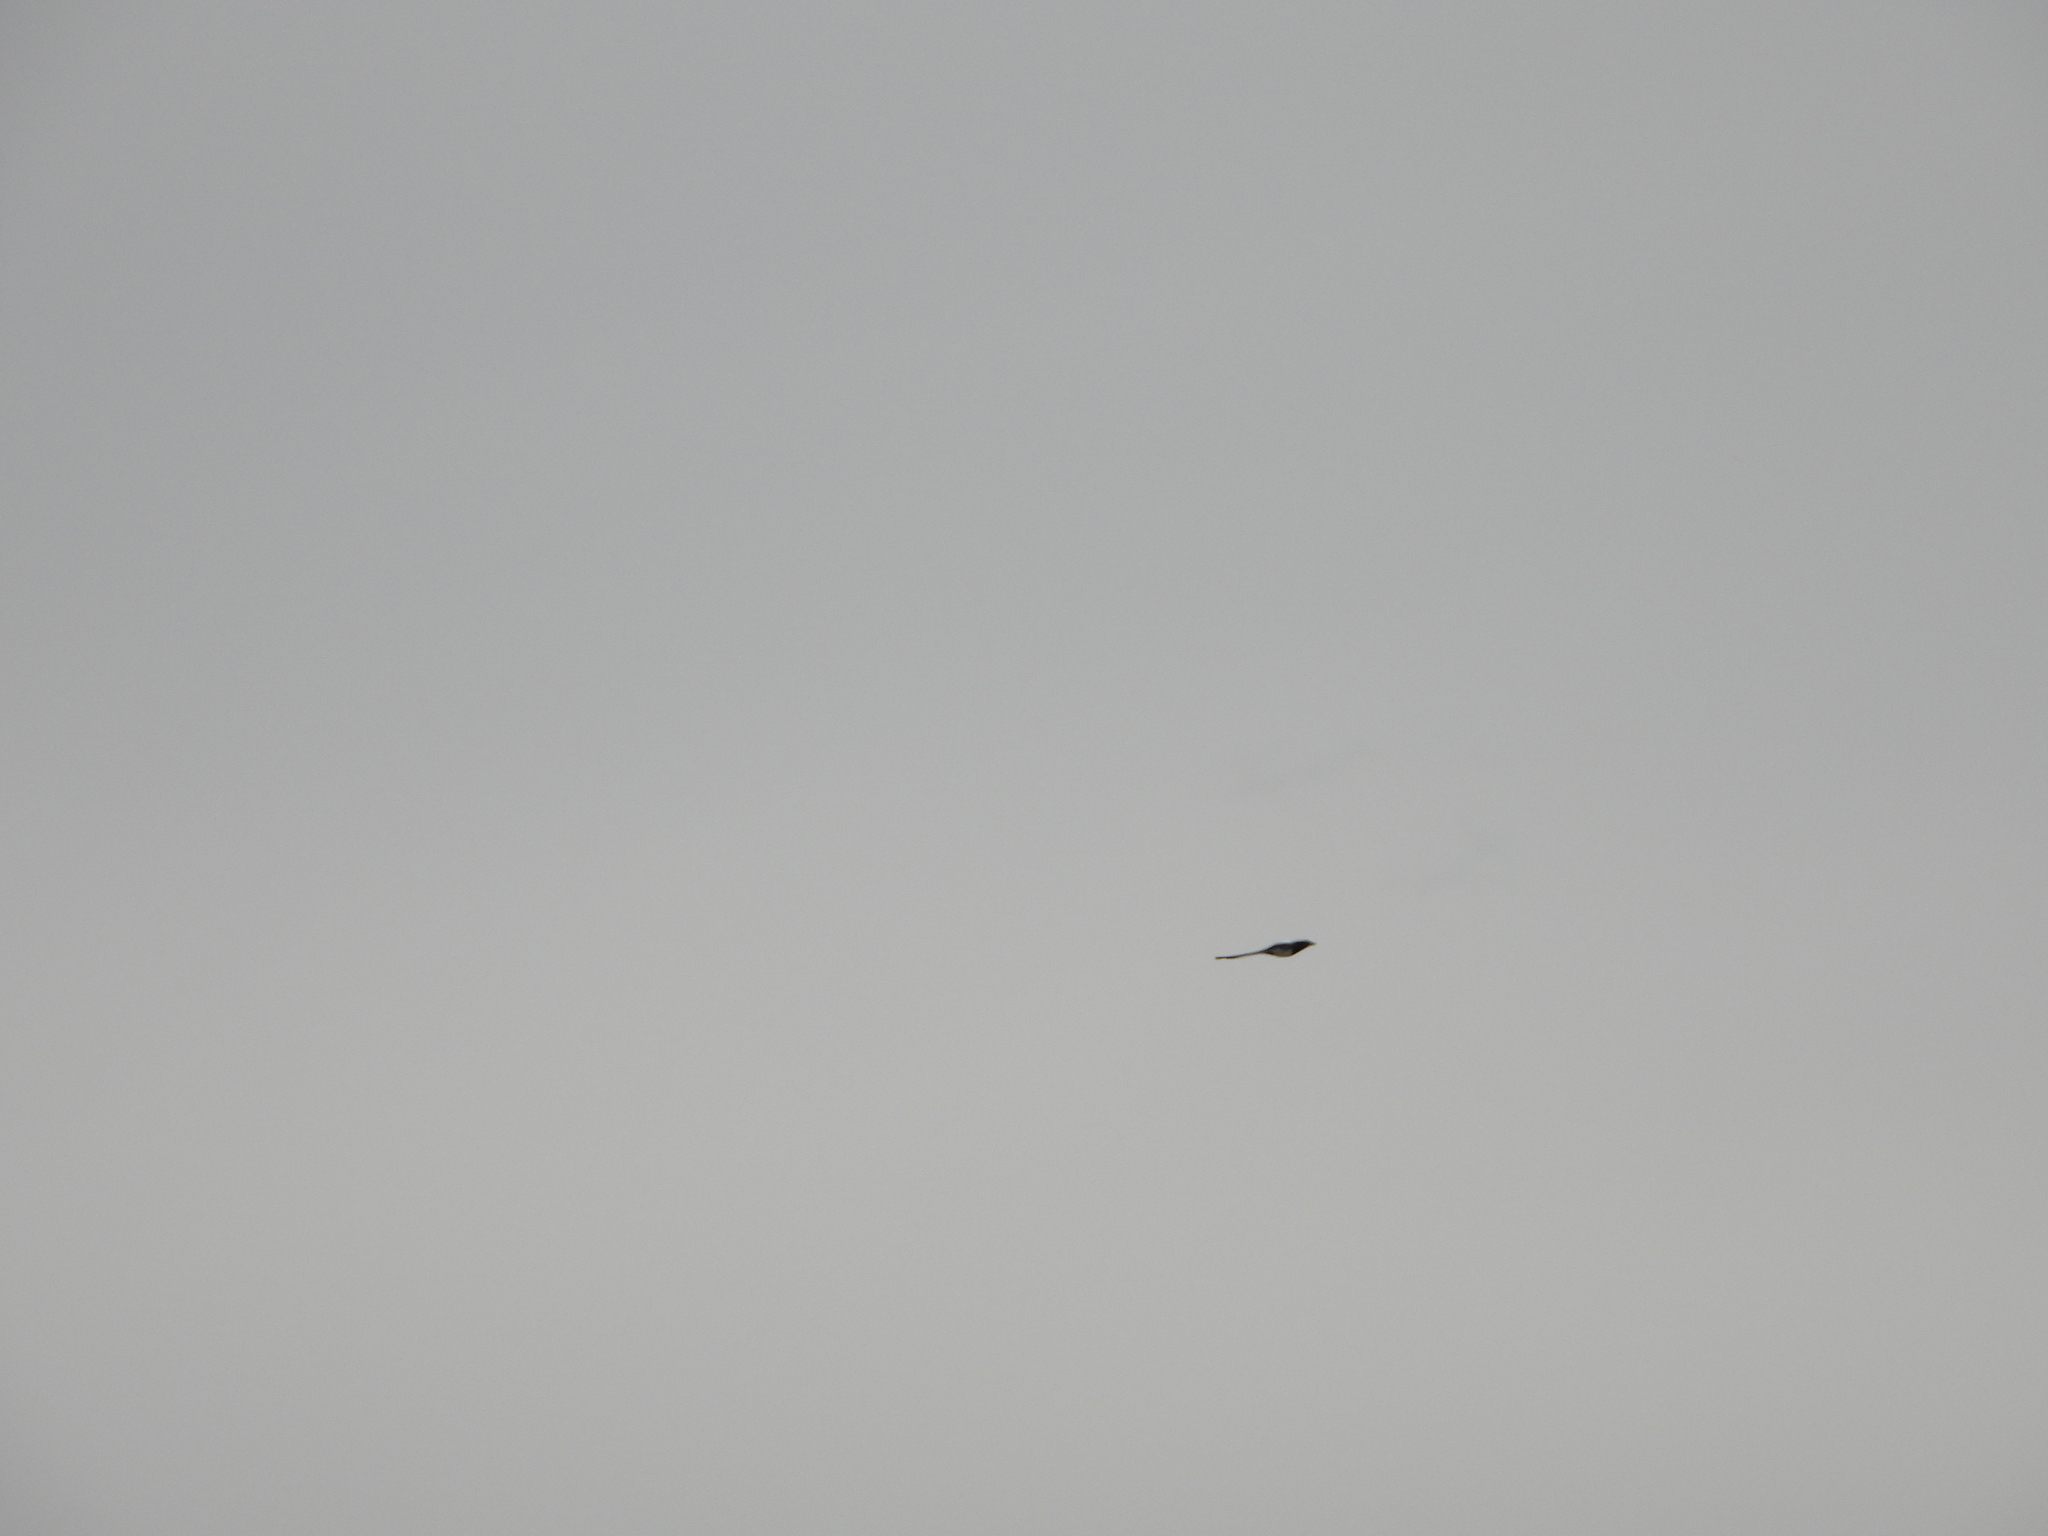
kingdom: Animalia
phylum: Chordata
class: Aves
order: Passeriformes
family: Corvidae
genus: Pica
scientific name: Pica hudsonia
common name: Black-billed magpie
